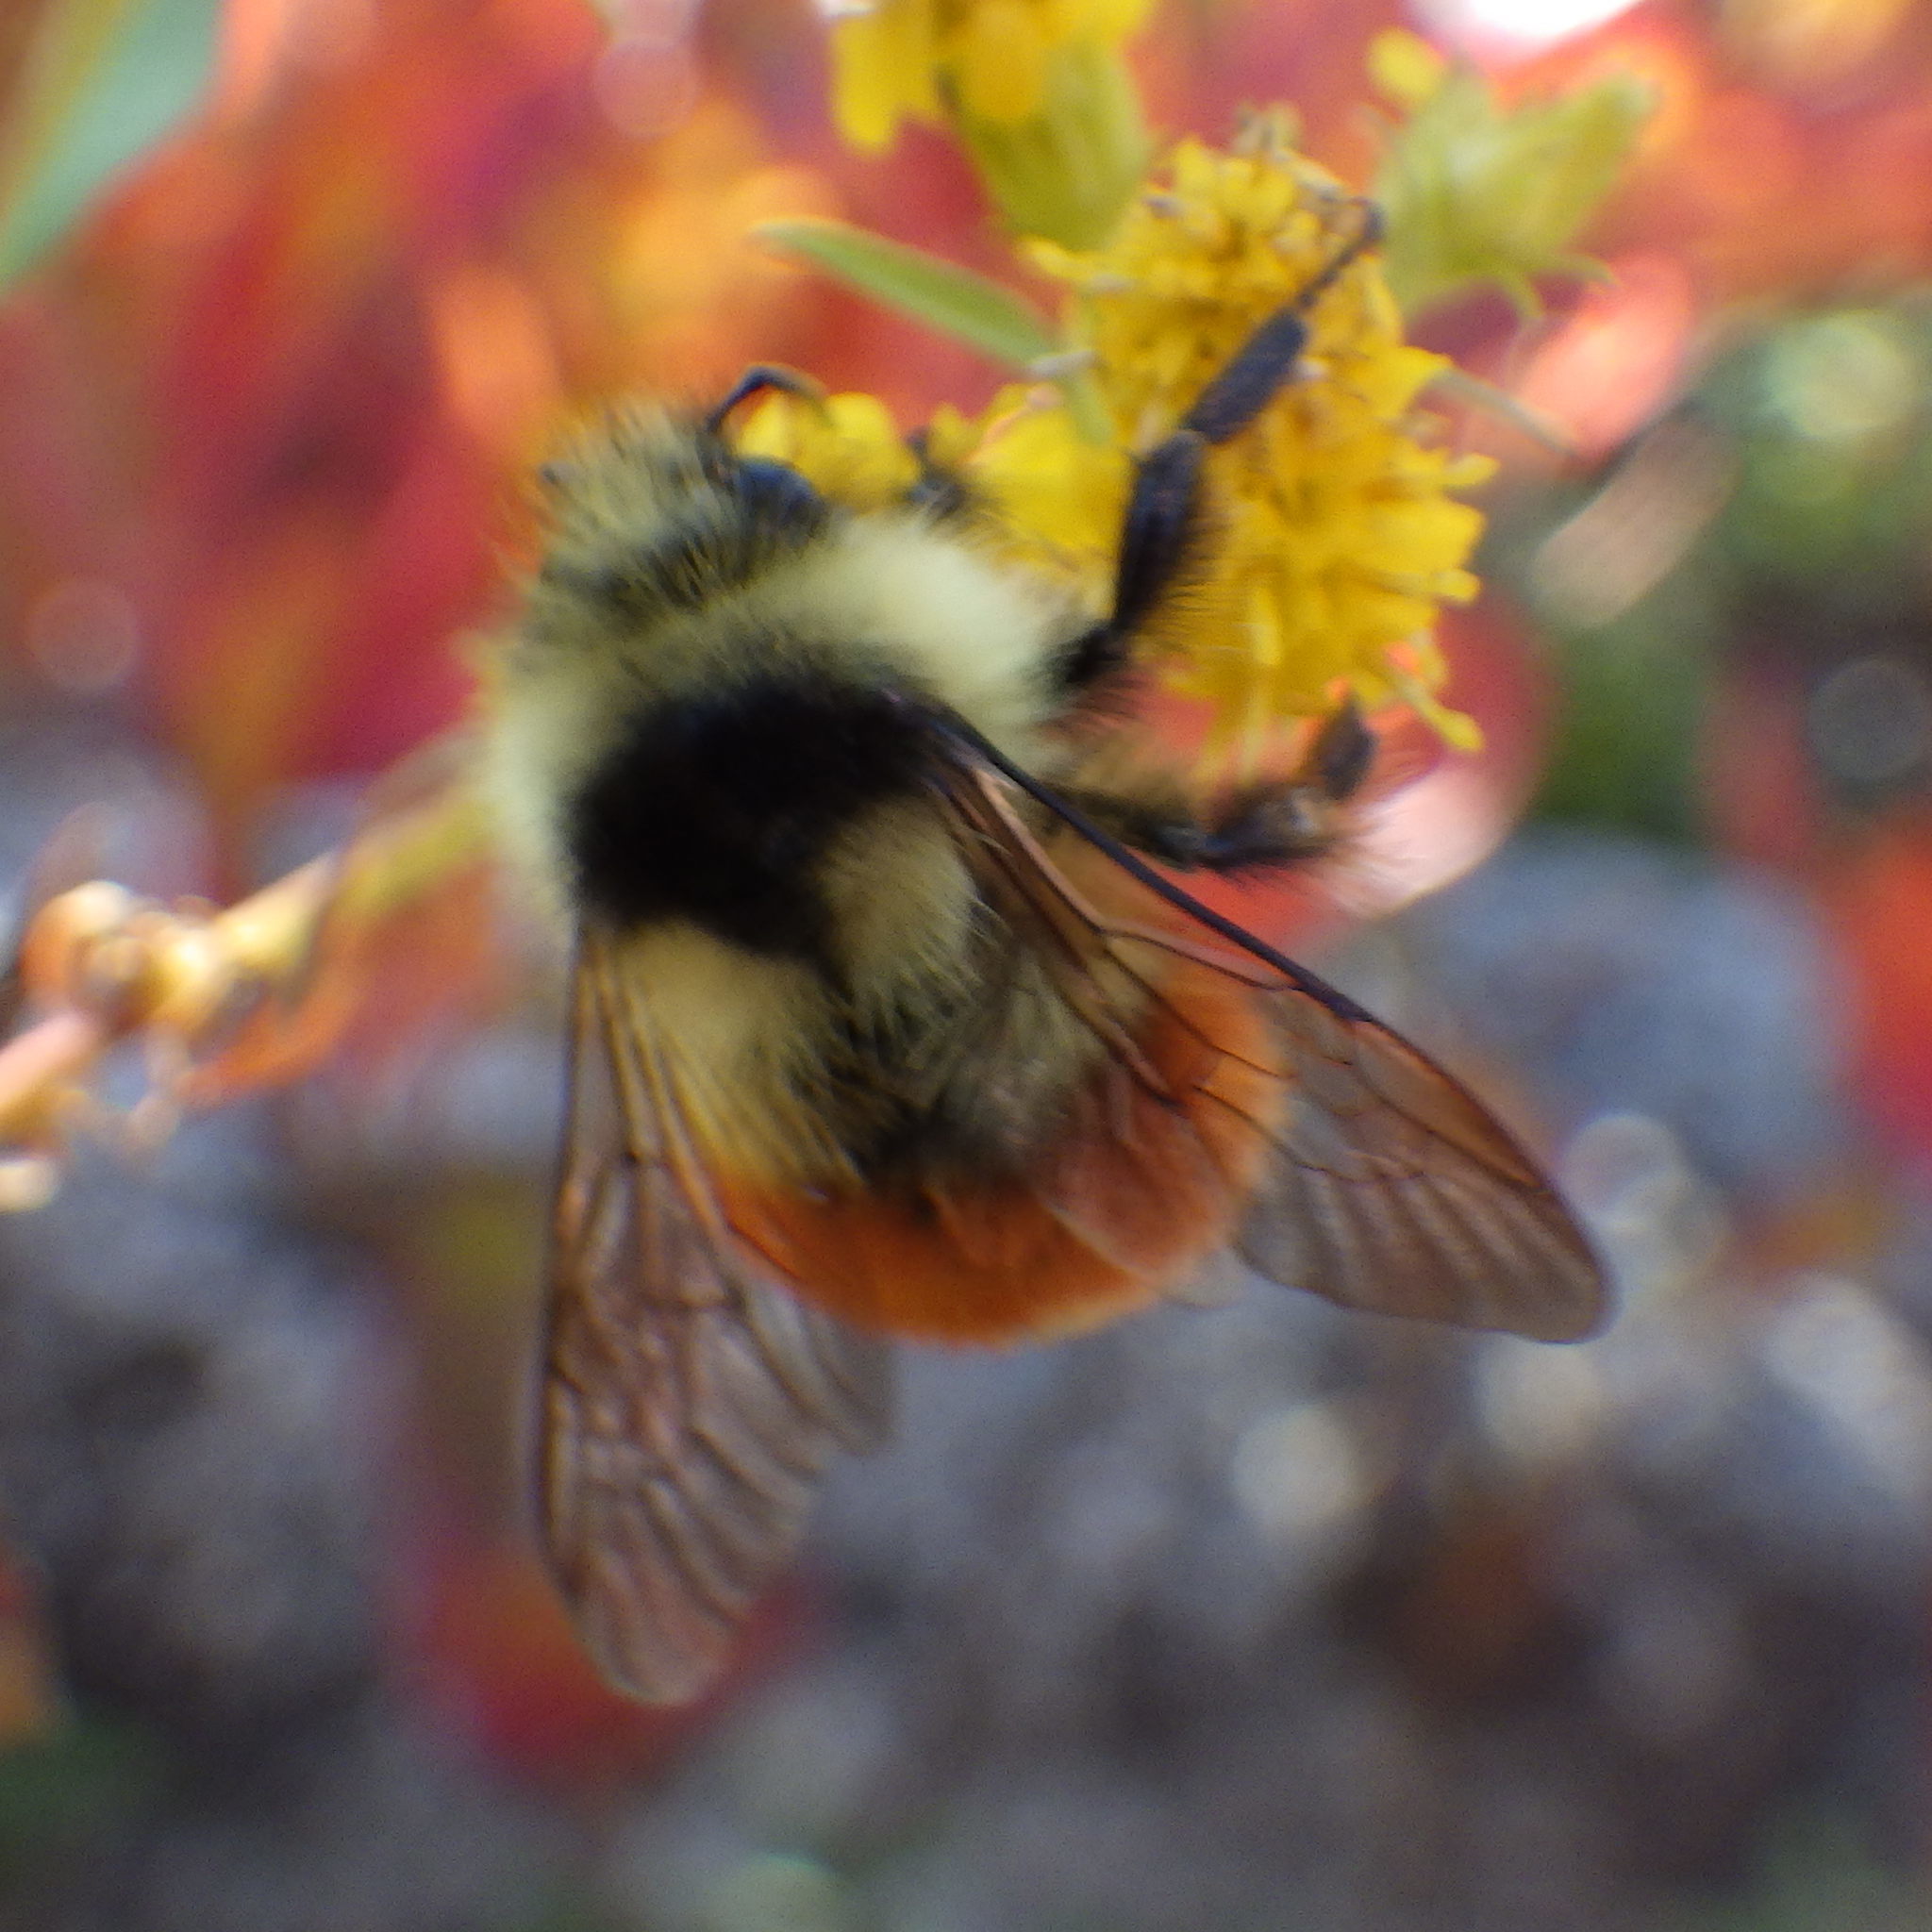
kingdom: Animalia
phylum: Arthropoda
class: Insecta
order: Hymenoptera
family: Apidae
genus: Bombus
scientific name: Bombus ternarius
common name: Tri-colored bumble bee
